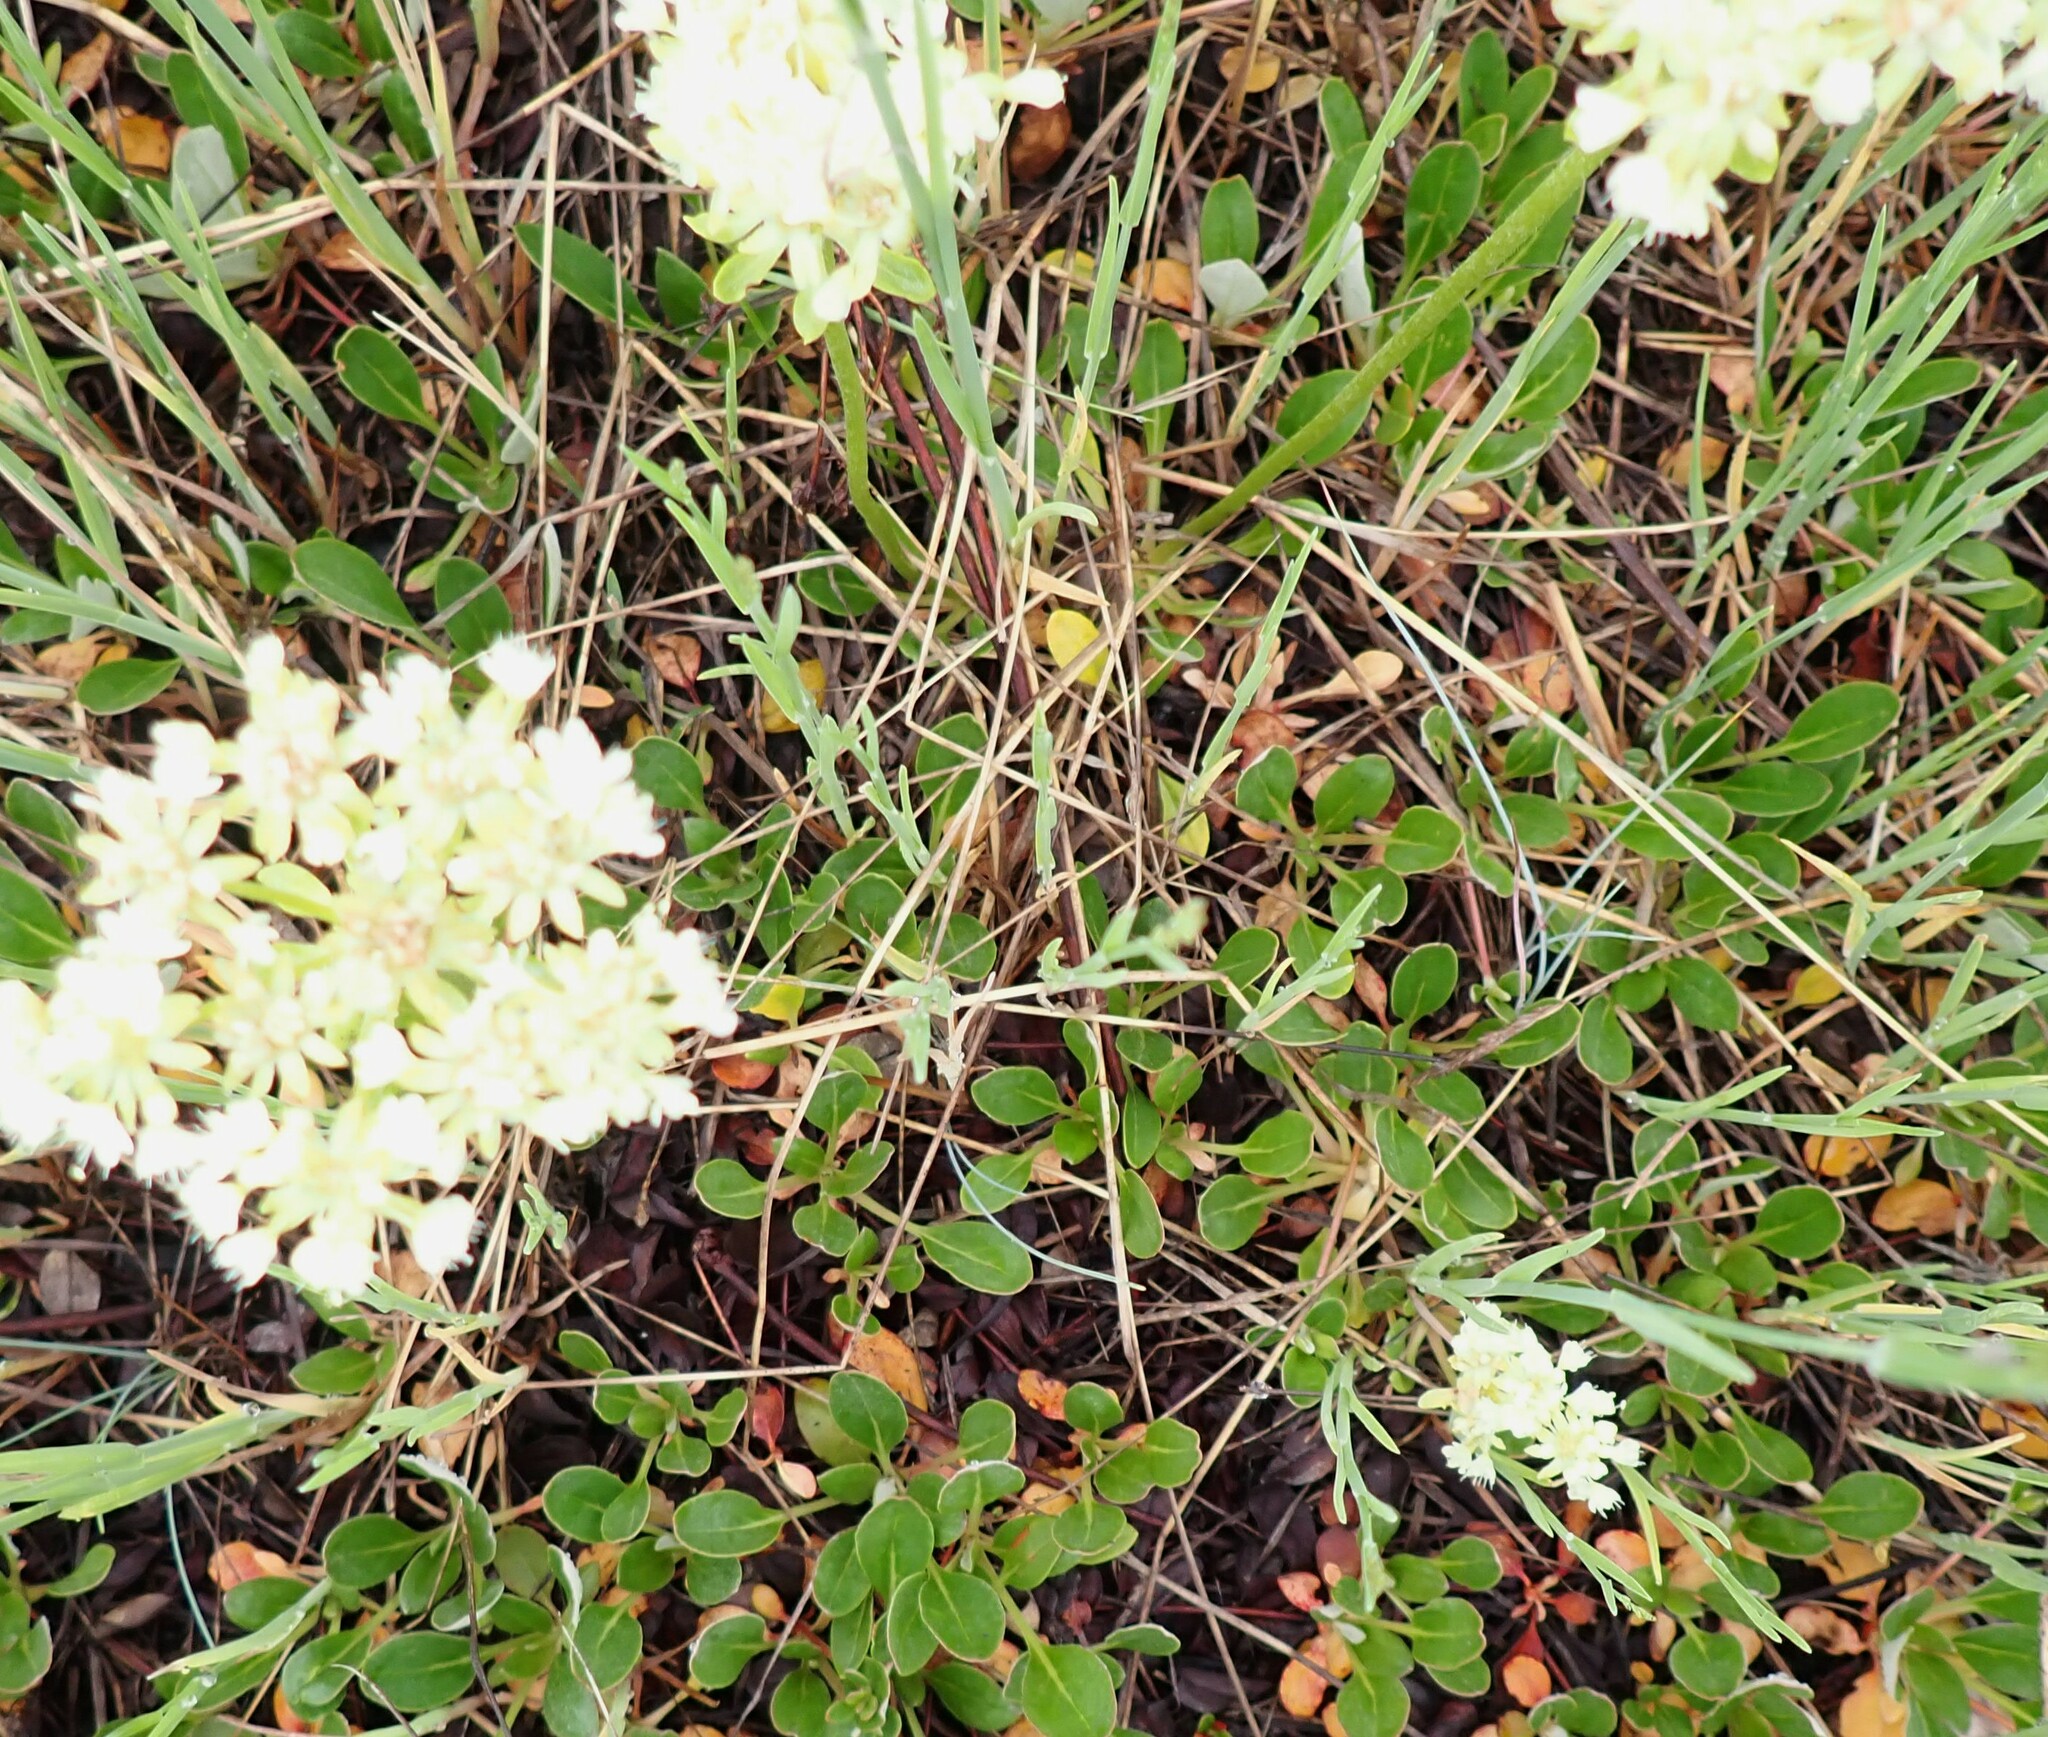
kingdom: Plantae
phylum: Tracheophyta
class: Magnoliopsida
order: Caryophyllales
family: Polygonaceae
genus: Eriogonum
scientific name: Eriogonum umbellatum
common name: Sulfur-buckwheat
